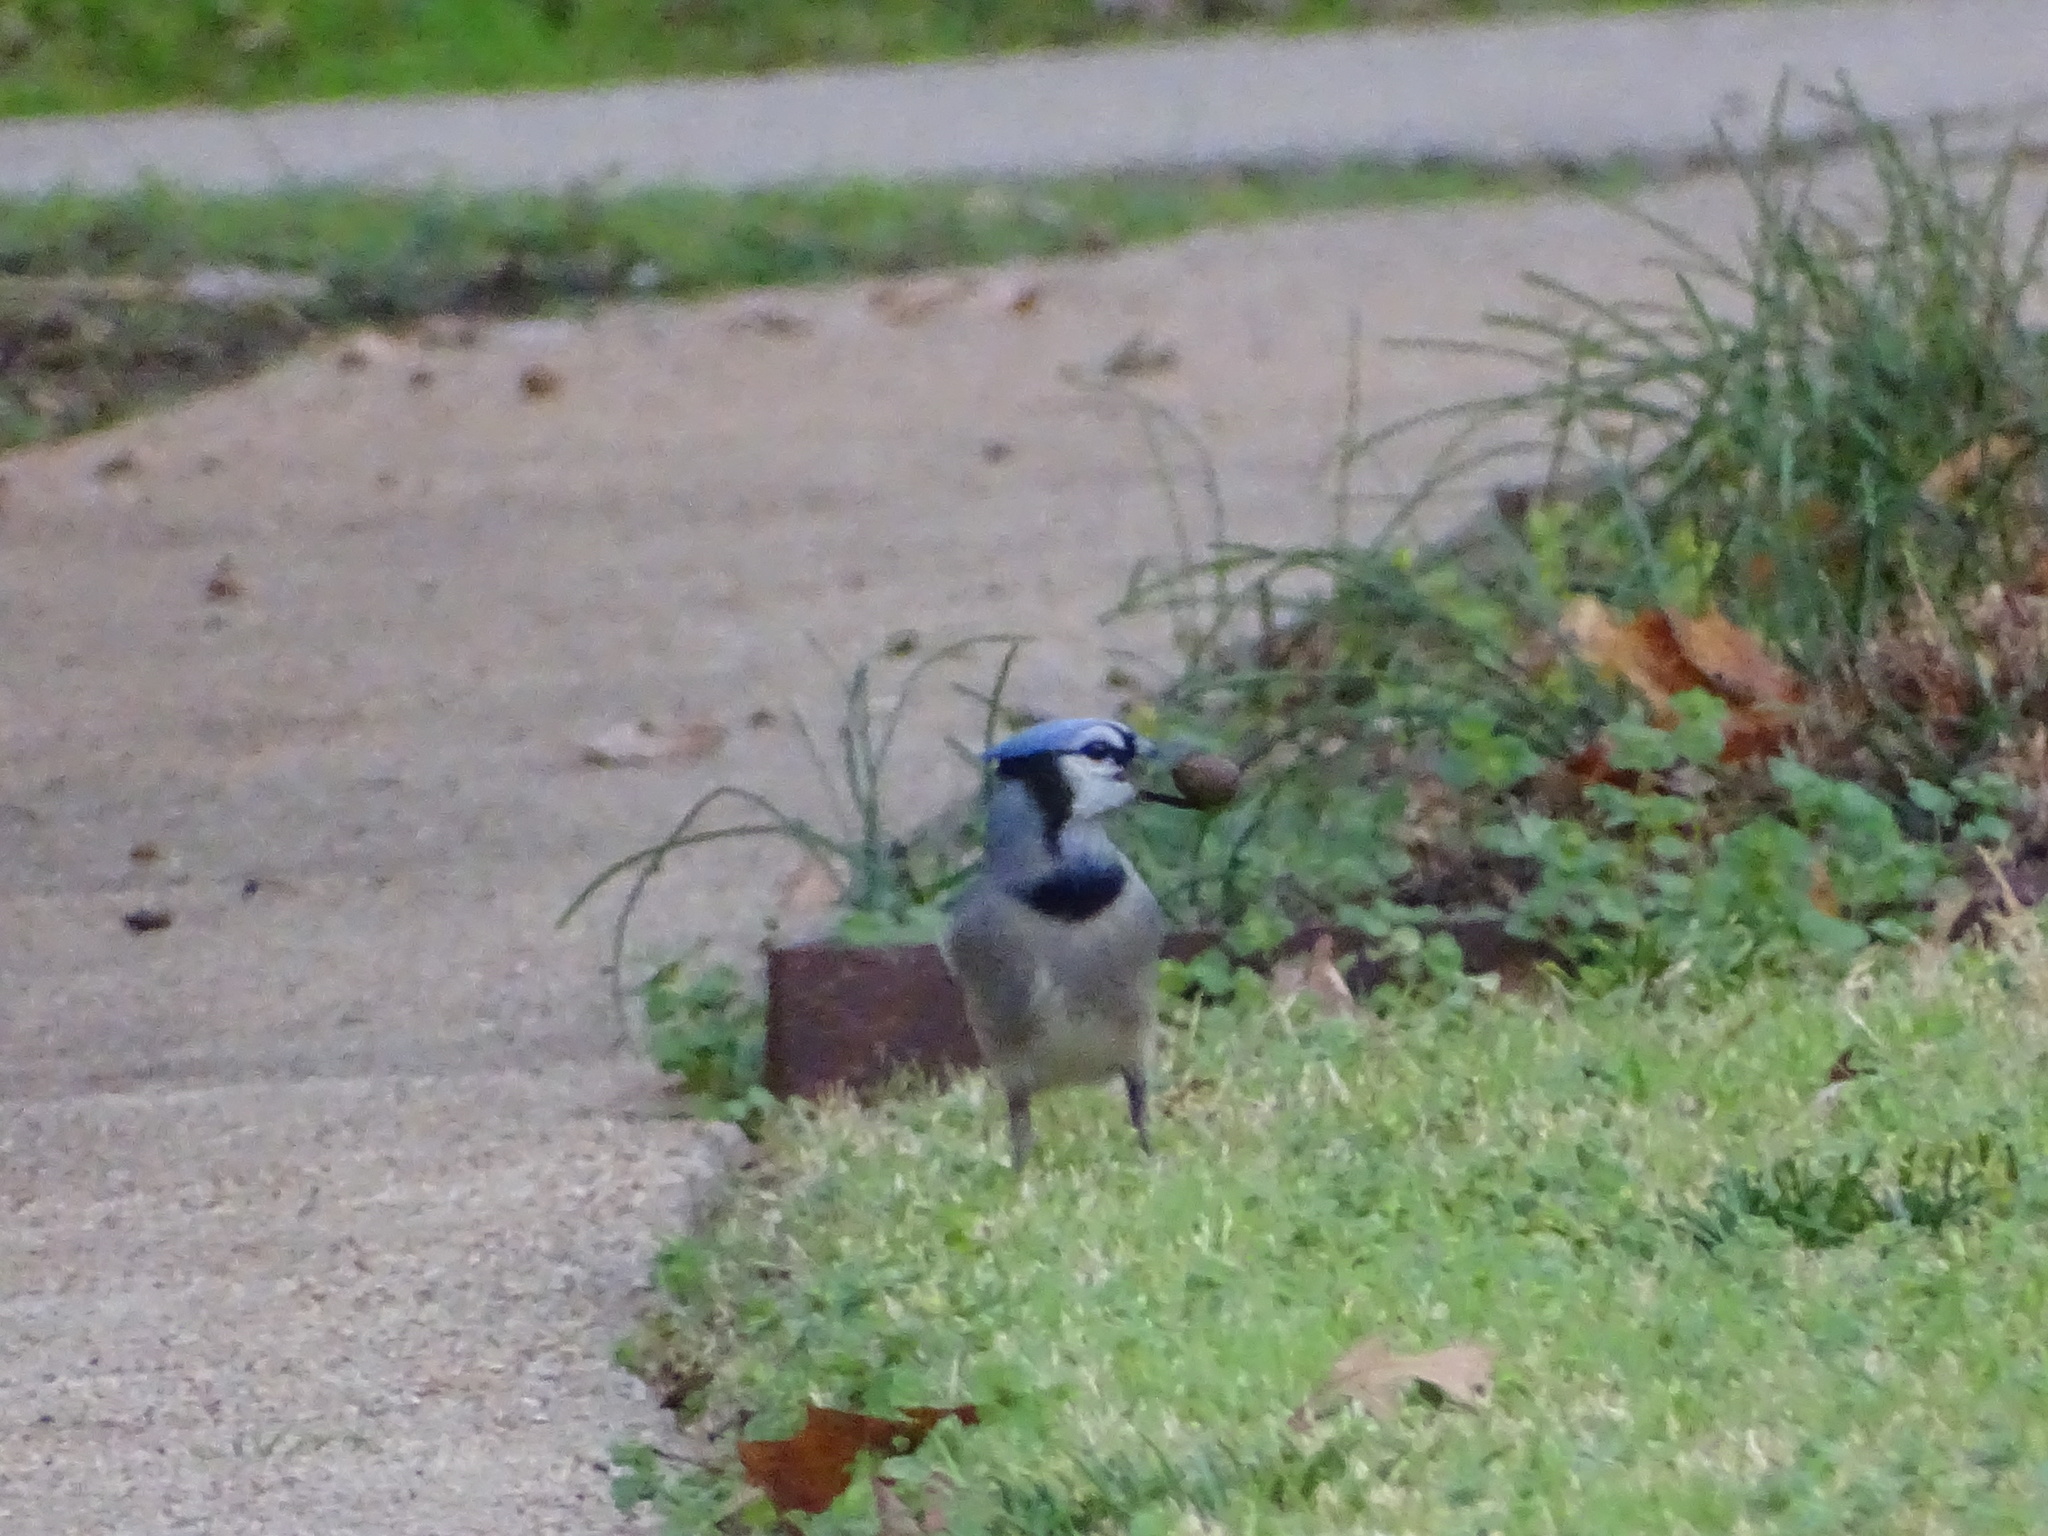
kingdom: Animalia
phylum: Chordata
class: Aves
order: Passeriformes
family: Corvidae
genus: Cyanocitta
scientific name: Cyanocitta cristata
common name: Blue jay
